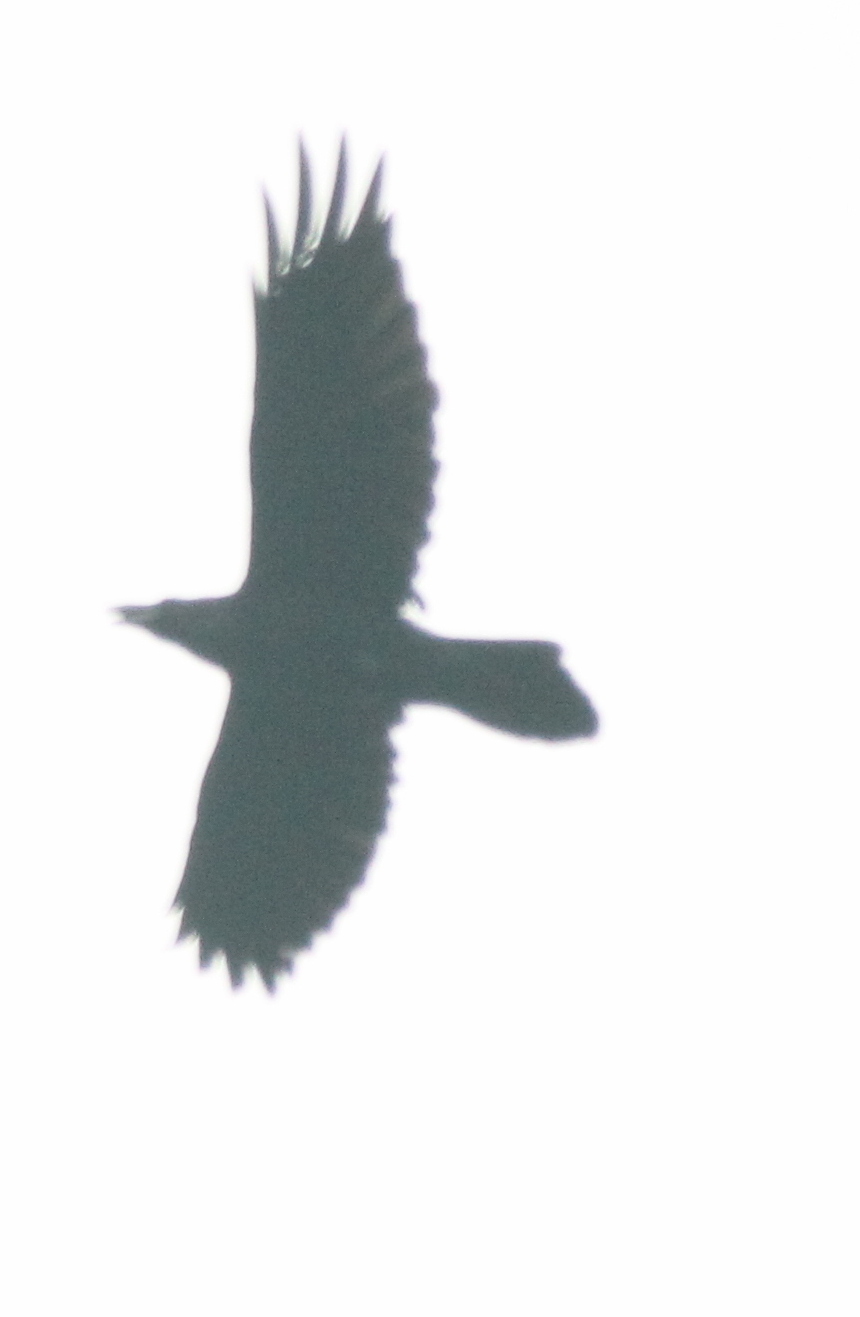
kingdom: Animalia
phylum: Chordata
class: Aves
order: Passeriformes
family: Corvidae
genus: Corvus
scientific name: Corvus corax
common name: Common raven
